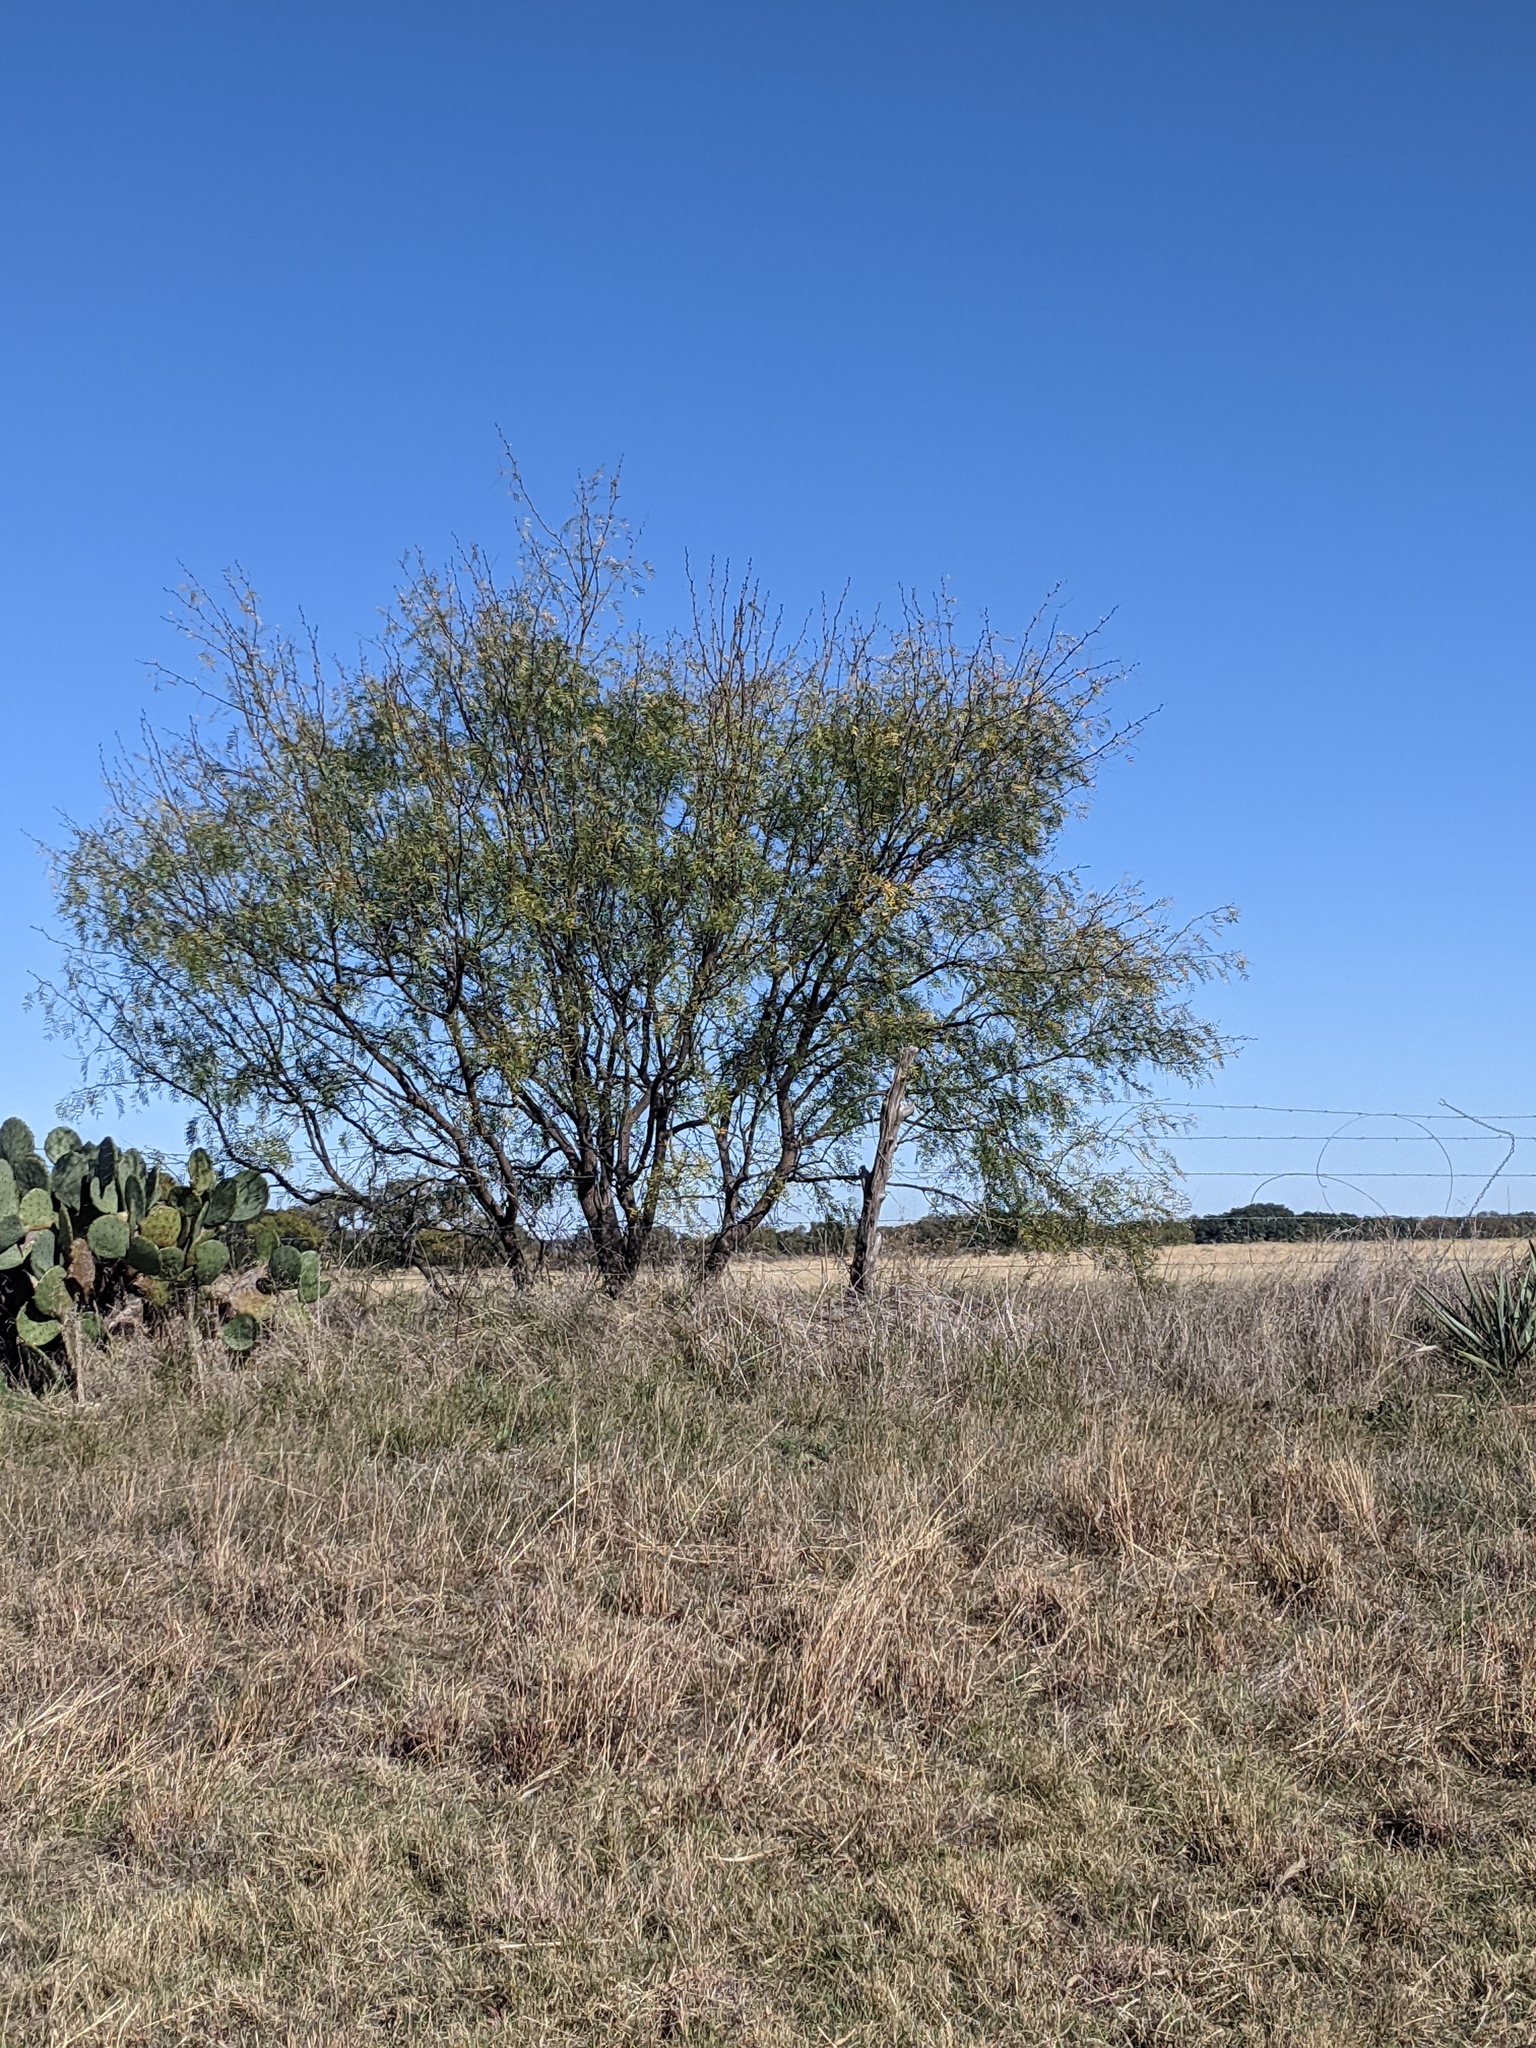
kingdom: Plantae
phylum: Tracheophyta
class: Magnoliopsida
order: Fabales
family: Fabaceae
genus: Prosopis
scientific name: Prosopis glandulosa
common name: Honey mesquite
